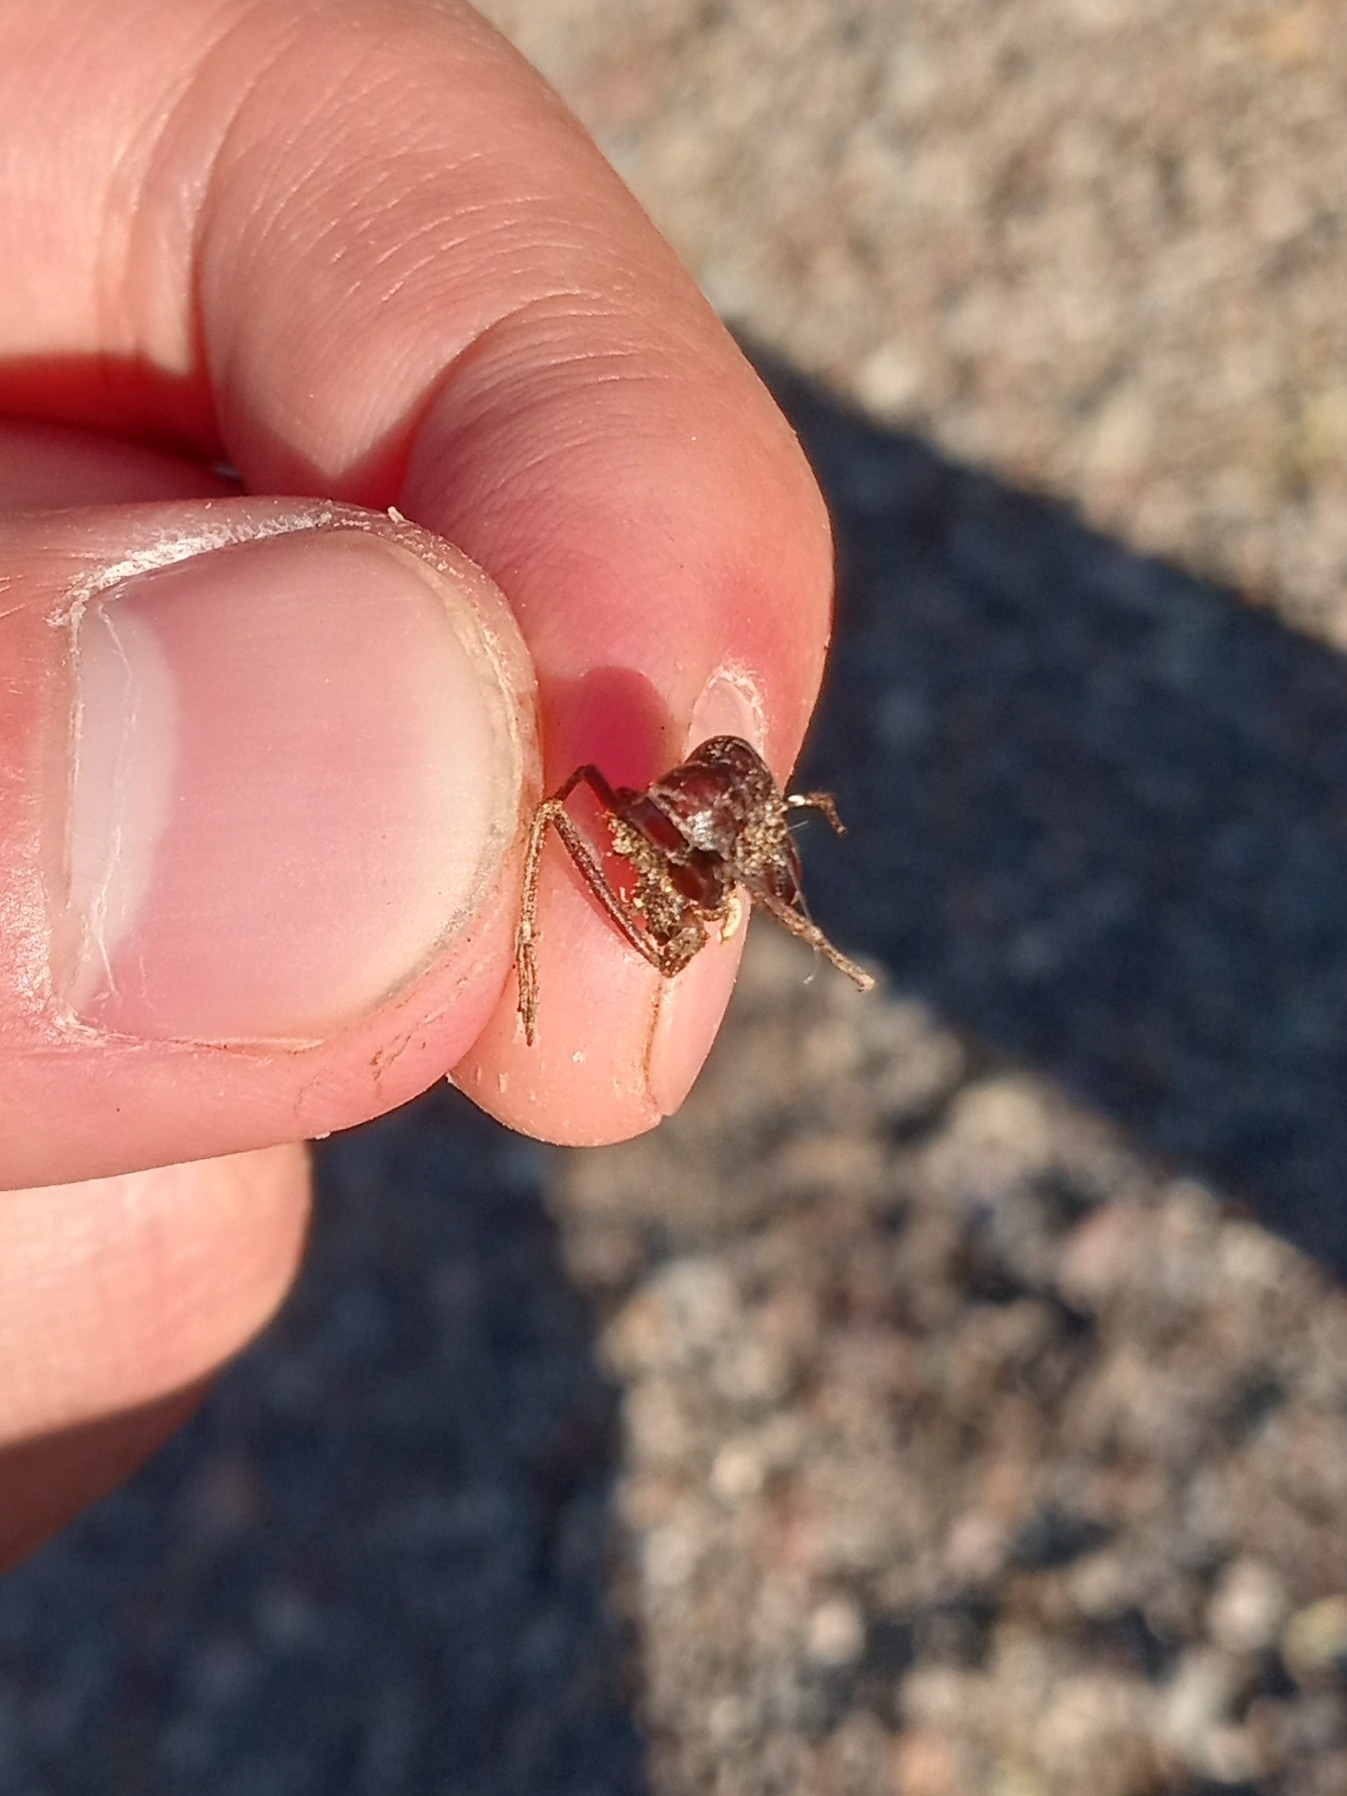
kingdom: Animalia
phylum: Arthropoda
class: Insecta
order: Hymenoptera
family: Formicidae
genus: Atta
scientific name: Atta mexicana
